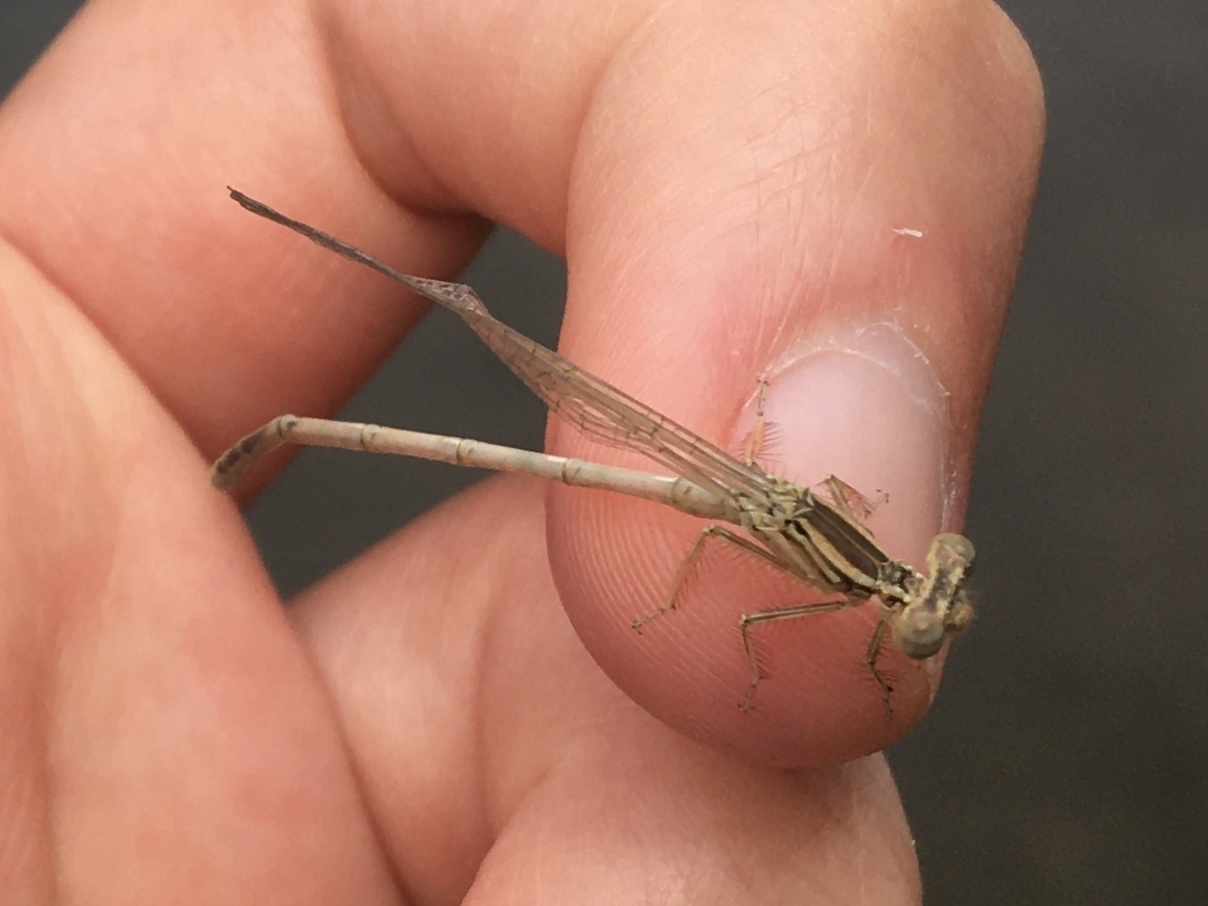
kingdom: Animalia
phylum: Arthropoda
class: Insecta
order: Odonata
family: Platycnemididae
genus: Platycnemis
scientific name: Platycnemis pennipes
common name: White-legged damselfly
